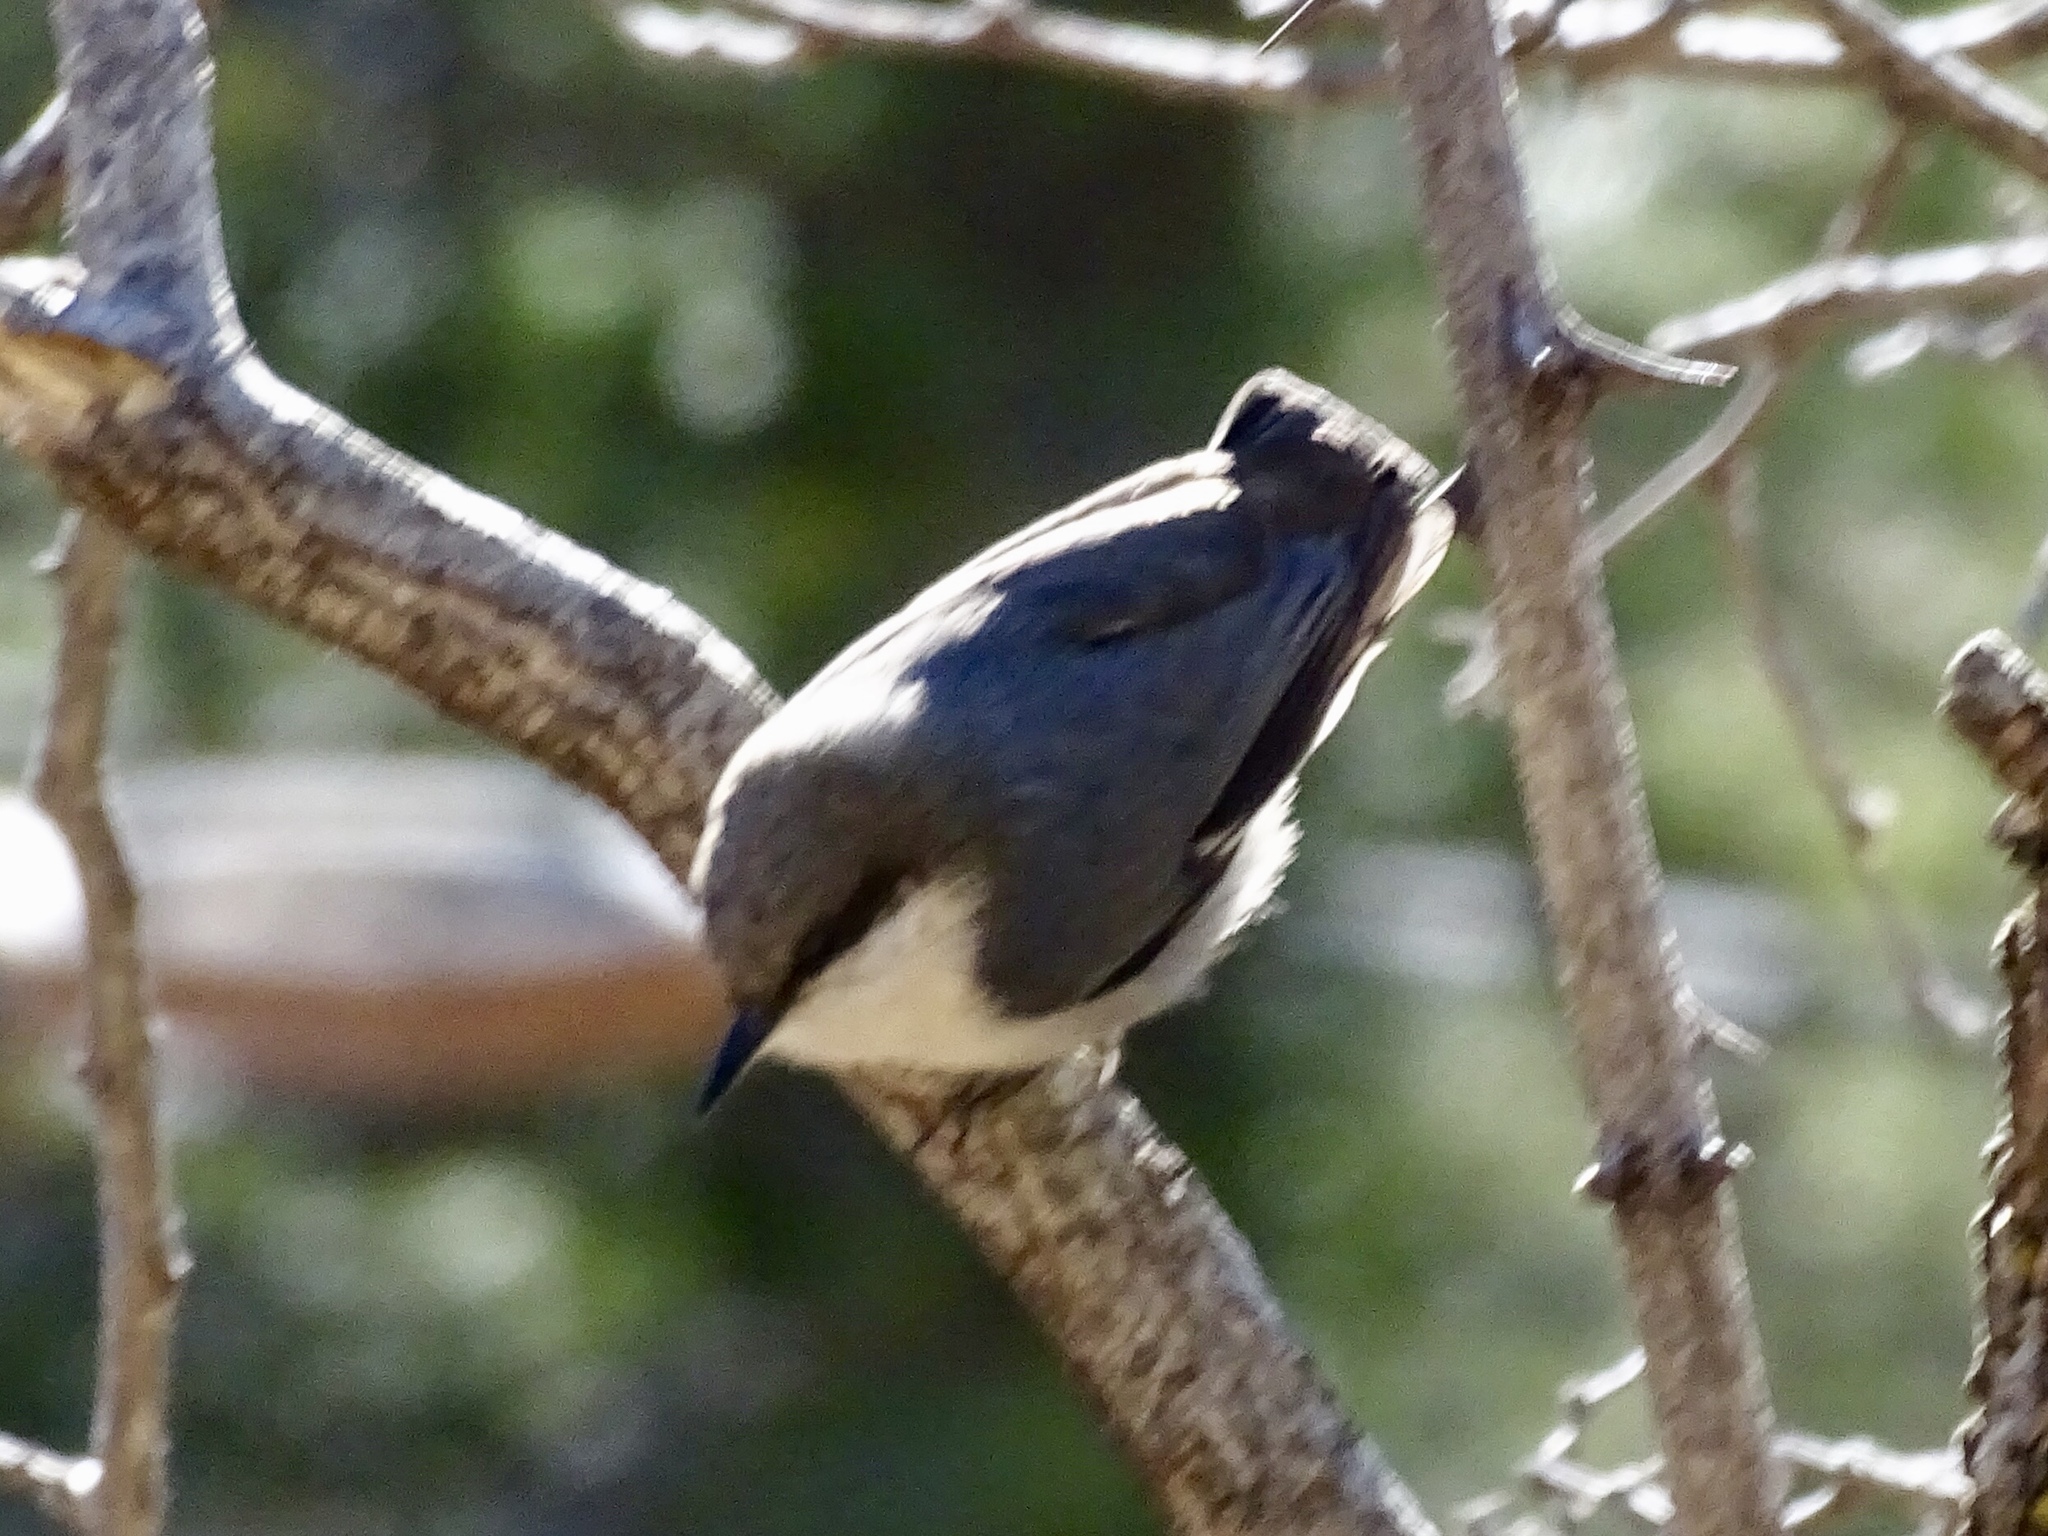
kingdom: Animalia
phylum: Chordata
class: Aves
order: Passeriformes
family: Sittidae
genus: Sitta
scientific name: Sitta pygmaea
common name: Pygmy nuthatch
